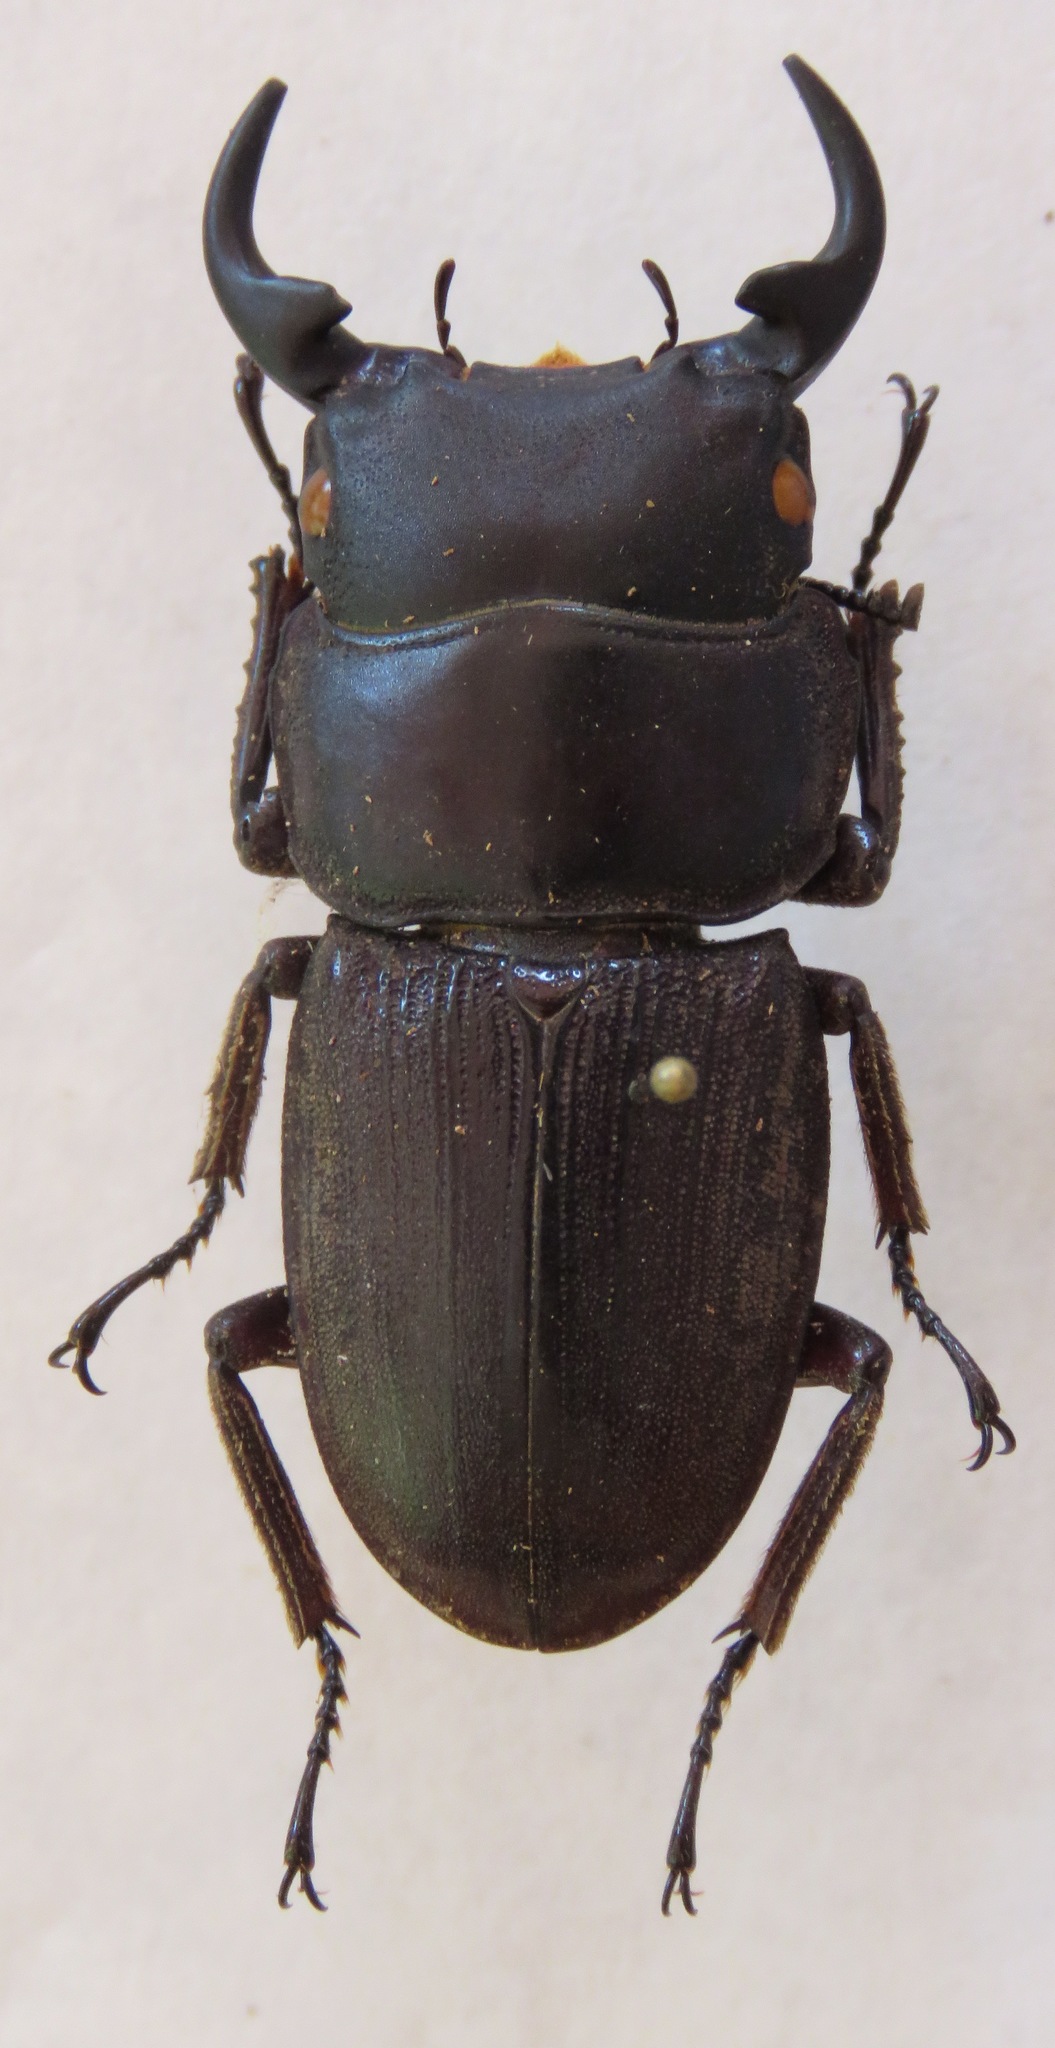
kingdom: Animalia
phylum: Arthropoda
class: Insecta
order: Coleoptera
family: Lucanidae
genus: Dorcus
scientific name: Dorcus ritsemae
